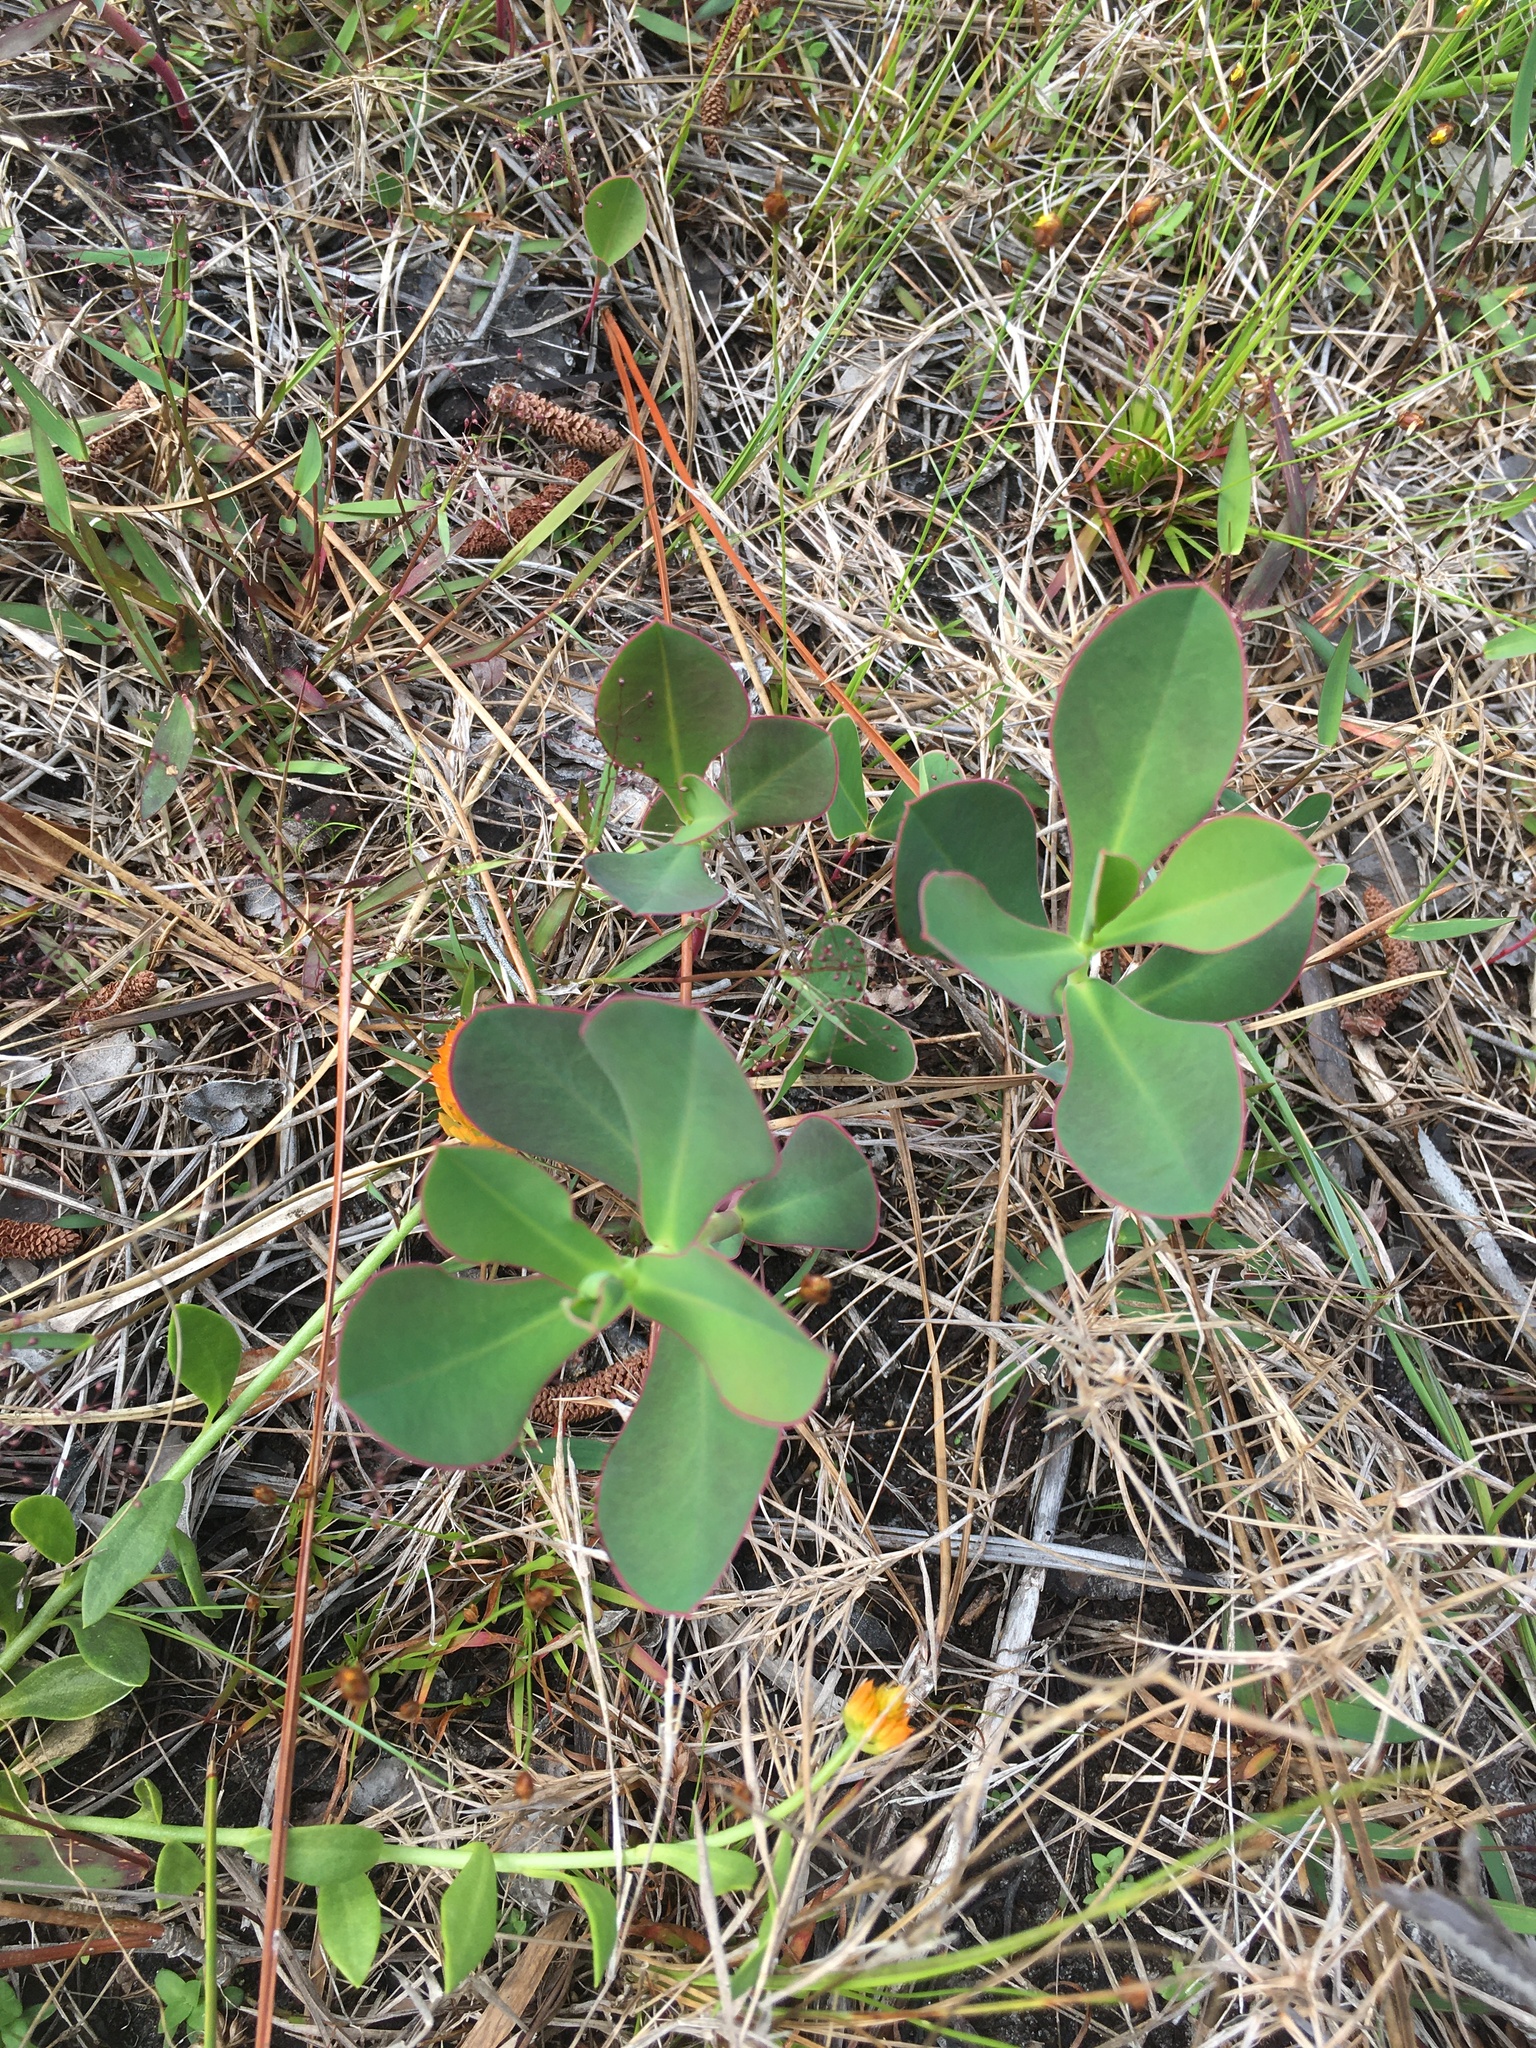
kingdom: Plantae
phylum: Tracheophyta
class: Magnoliopsida
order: Malpighiales
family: Euphorbiaceae
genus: Euphorbia
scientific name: Euphorbia telephioides
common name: Telephus spurge
